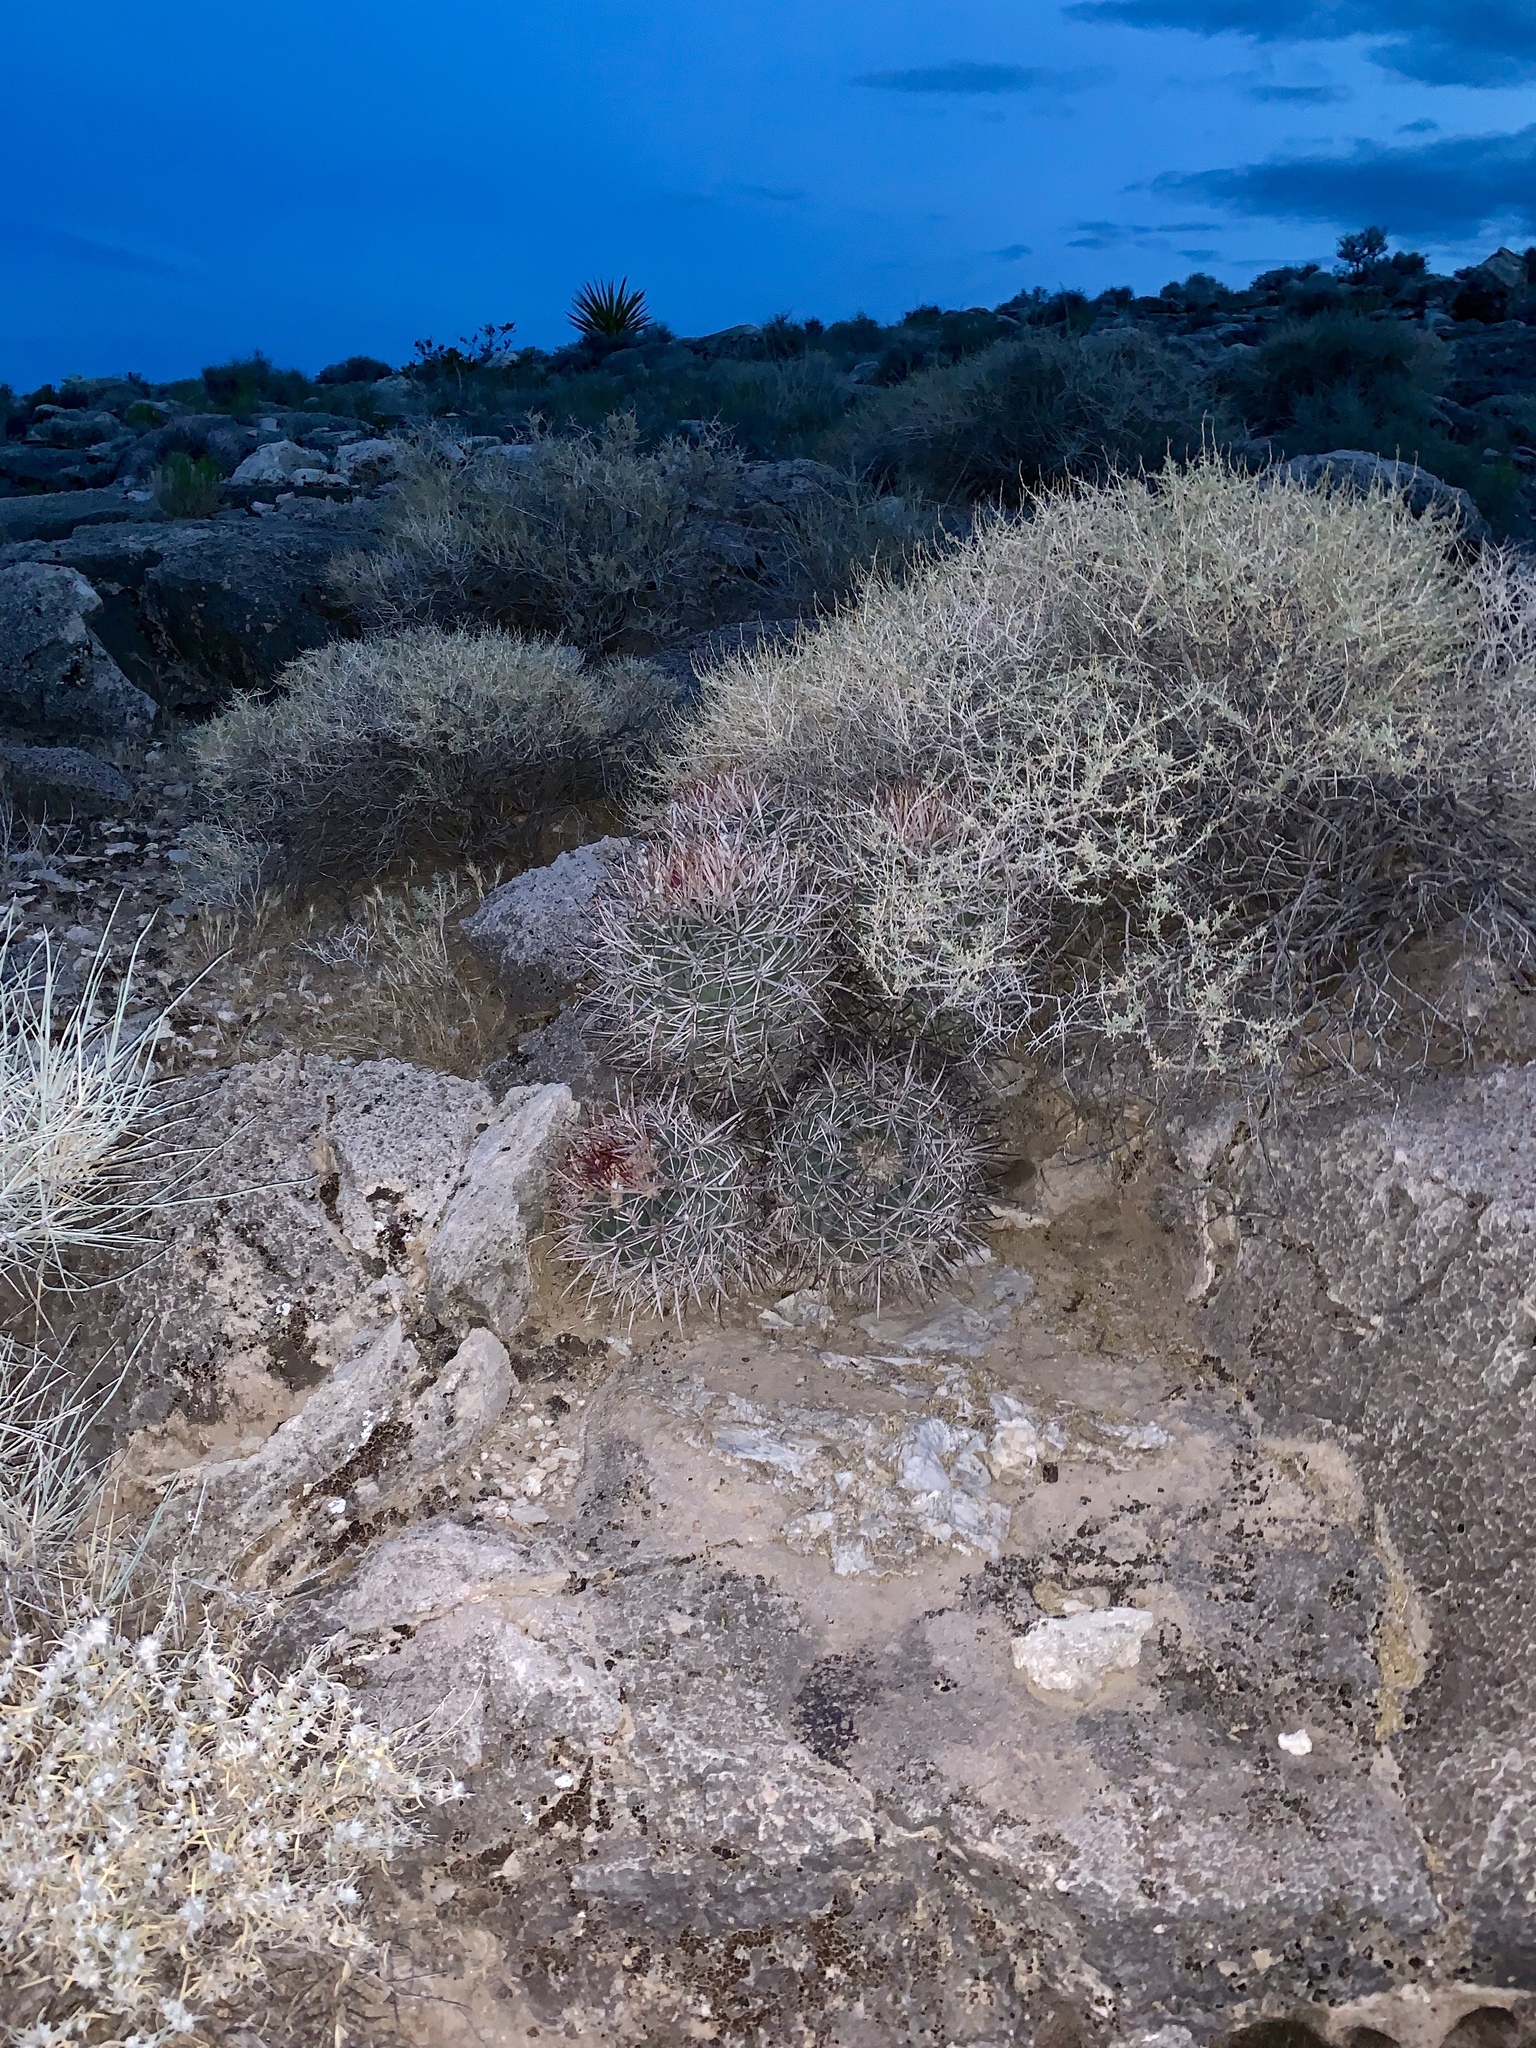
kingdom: Plantae
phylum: Tracheophyta
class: Magnoliopsida
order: Caryophyllales
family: Cactaceae
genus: Echinocactus
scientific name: Echinocactus polycephalus
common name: Cottontop cactus
